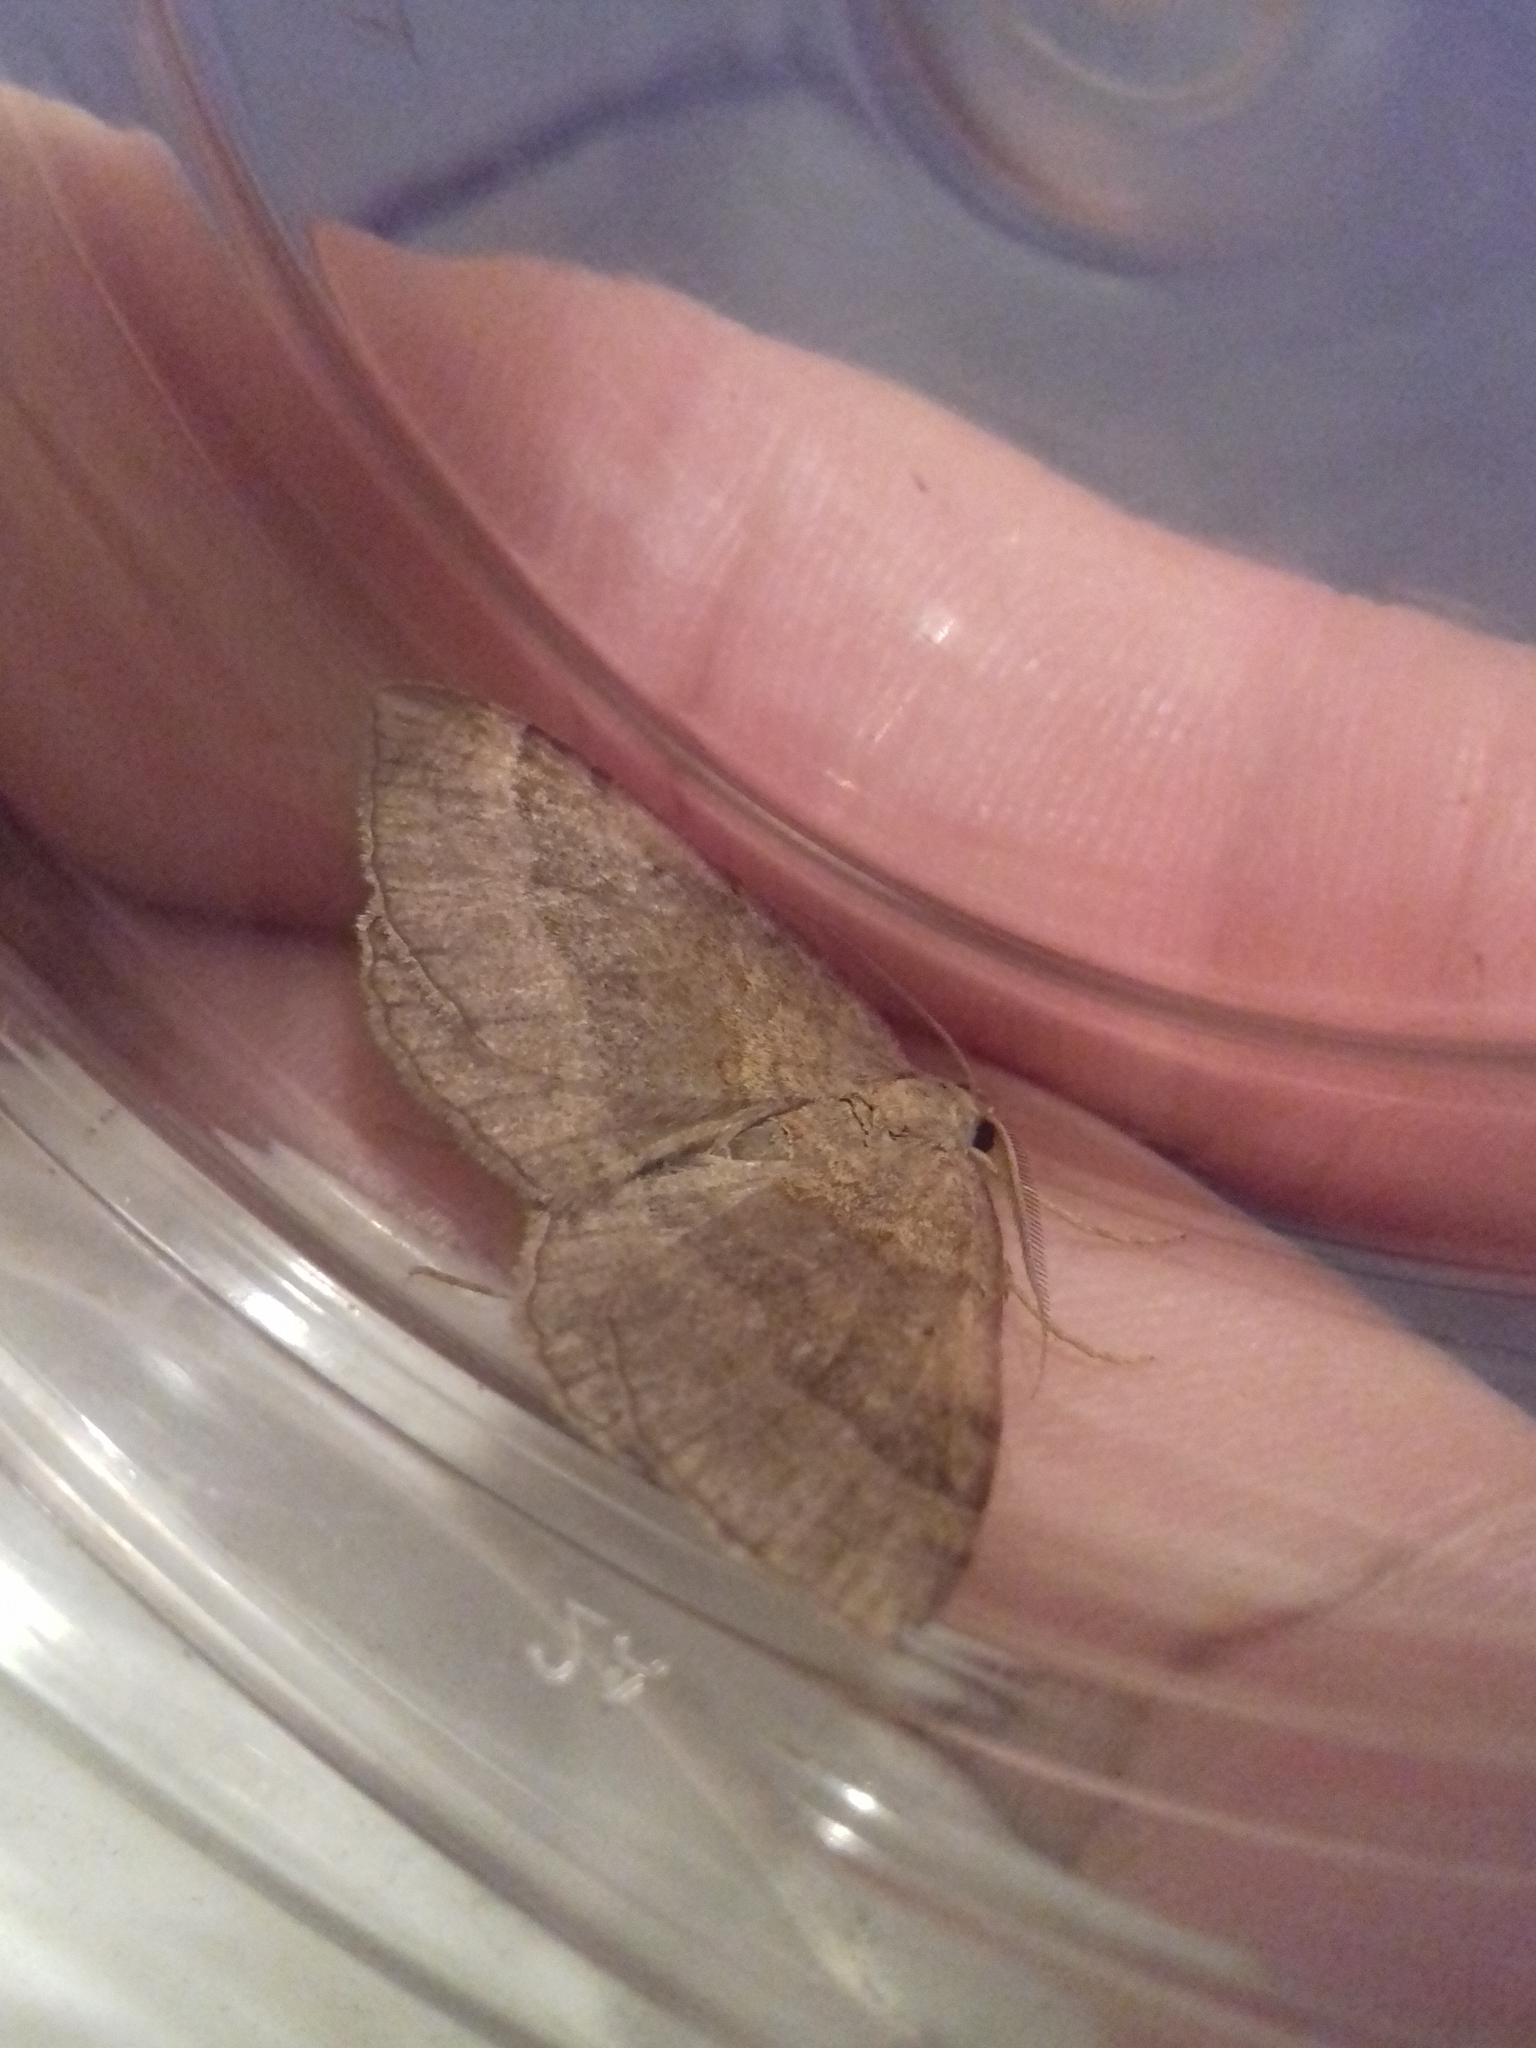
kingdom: Animalia
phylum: Arthropoda
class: Insecta
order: Lepidoptera
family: Geometridae
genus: Scotopteryx
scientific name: Scotopteryx chenopodiata
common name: Shaded broad-bar
